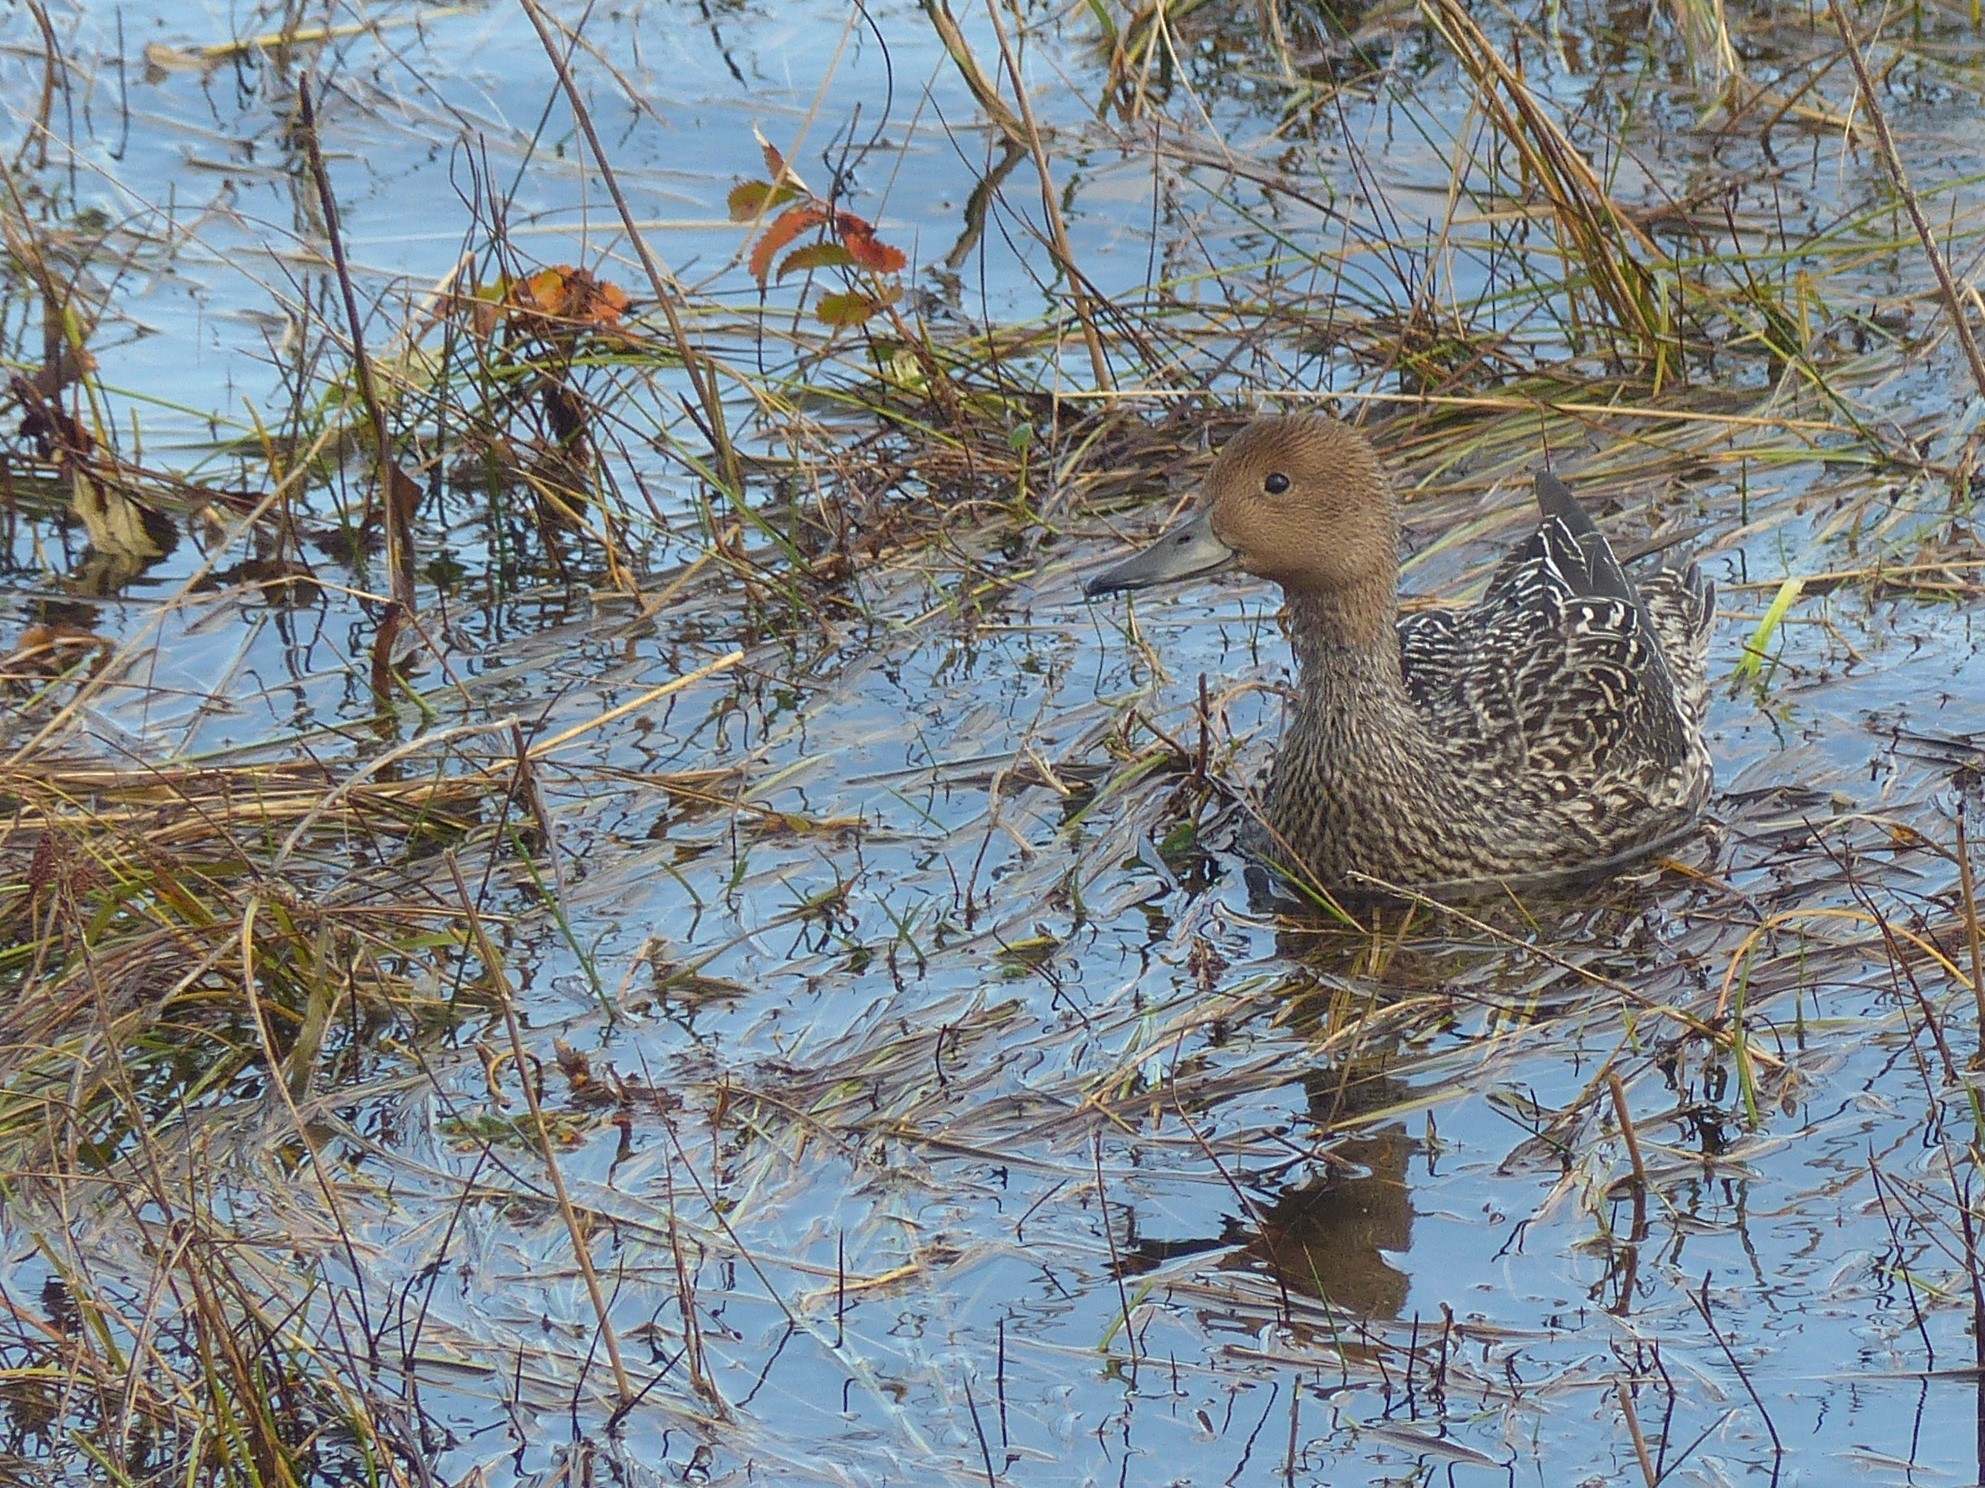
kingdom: Animalia
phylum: Chordata
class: Aves
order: Anseriformes
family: Anatidae
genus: Anas
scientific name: Anas acuta
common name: Northern pintail
